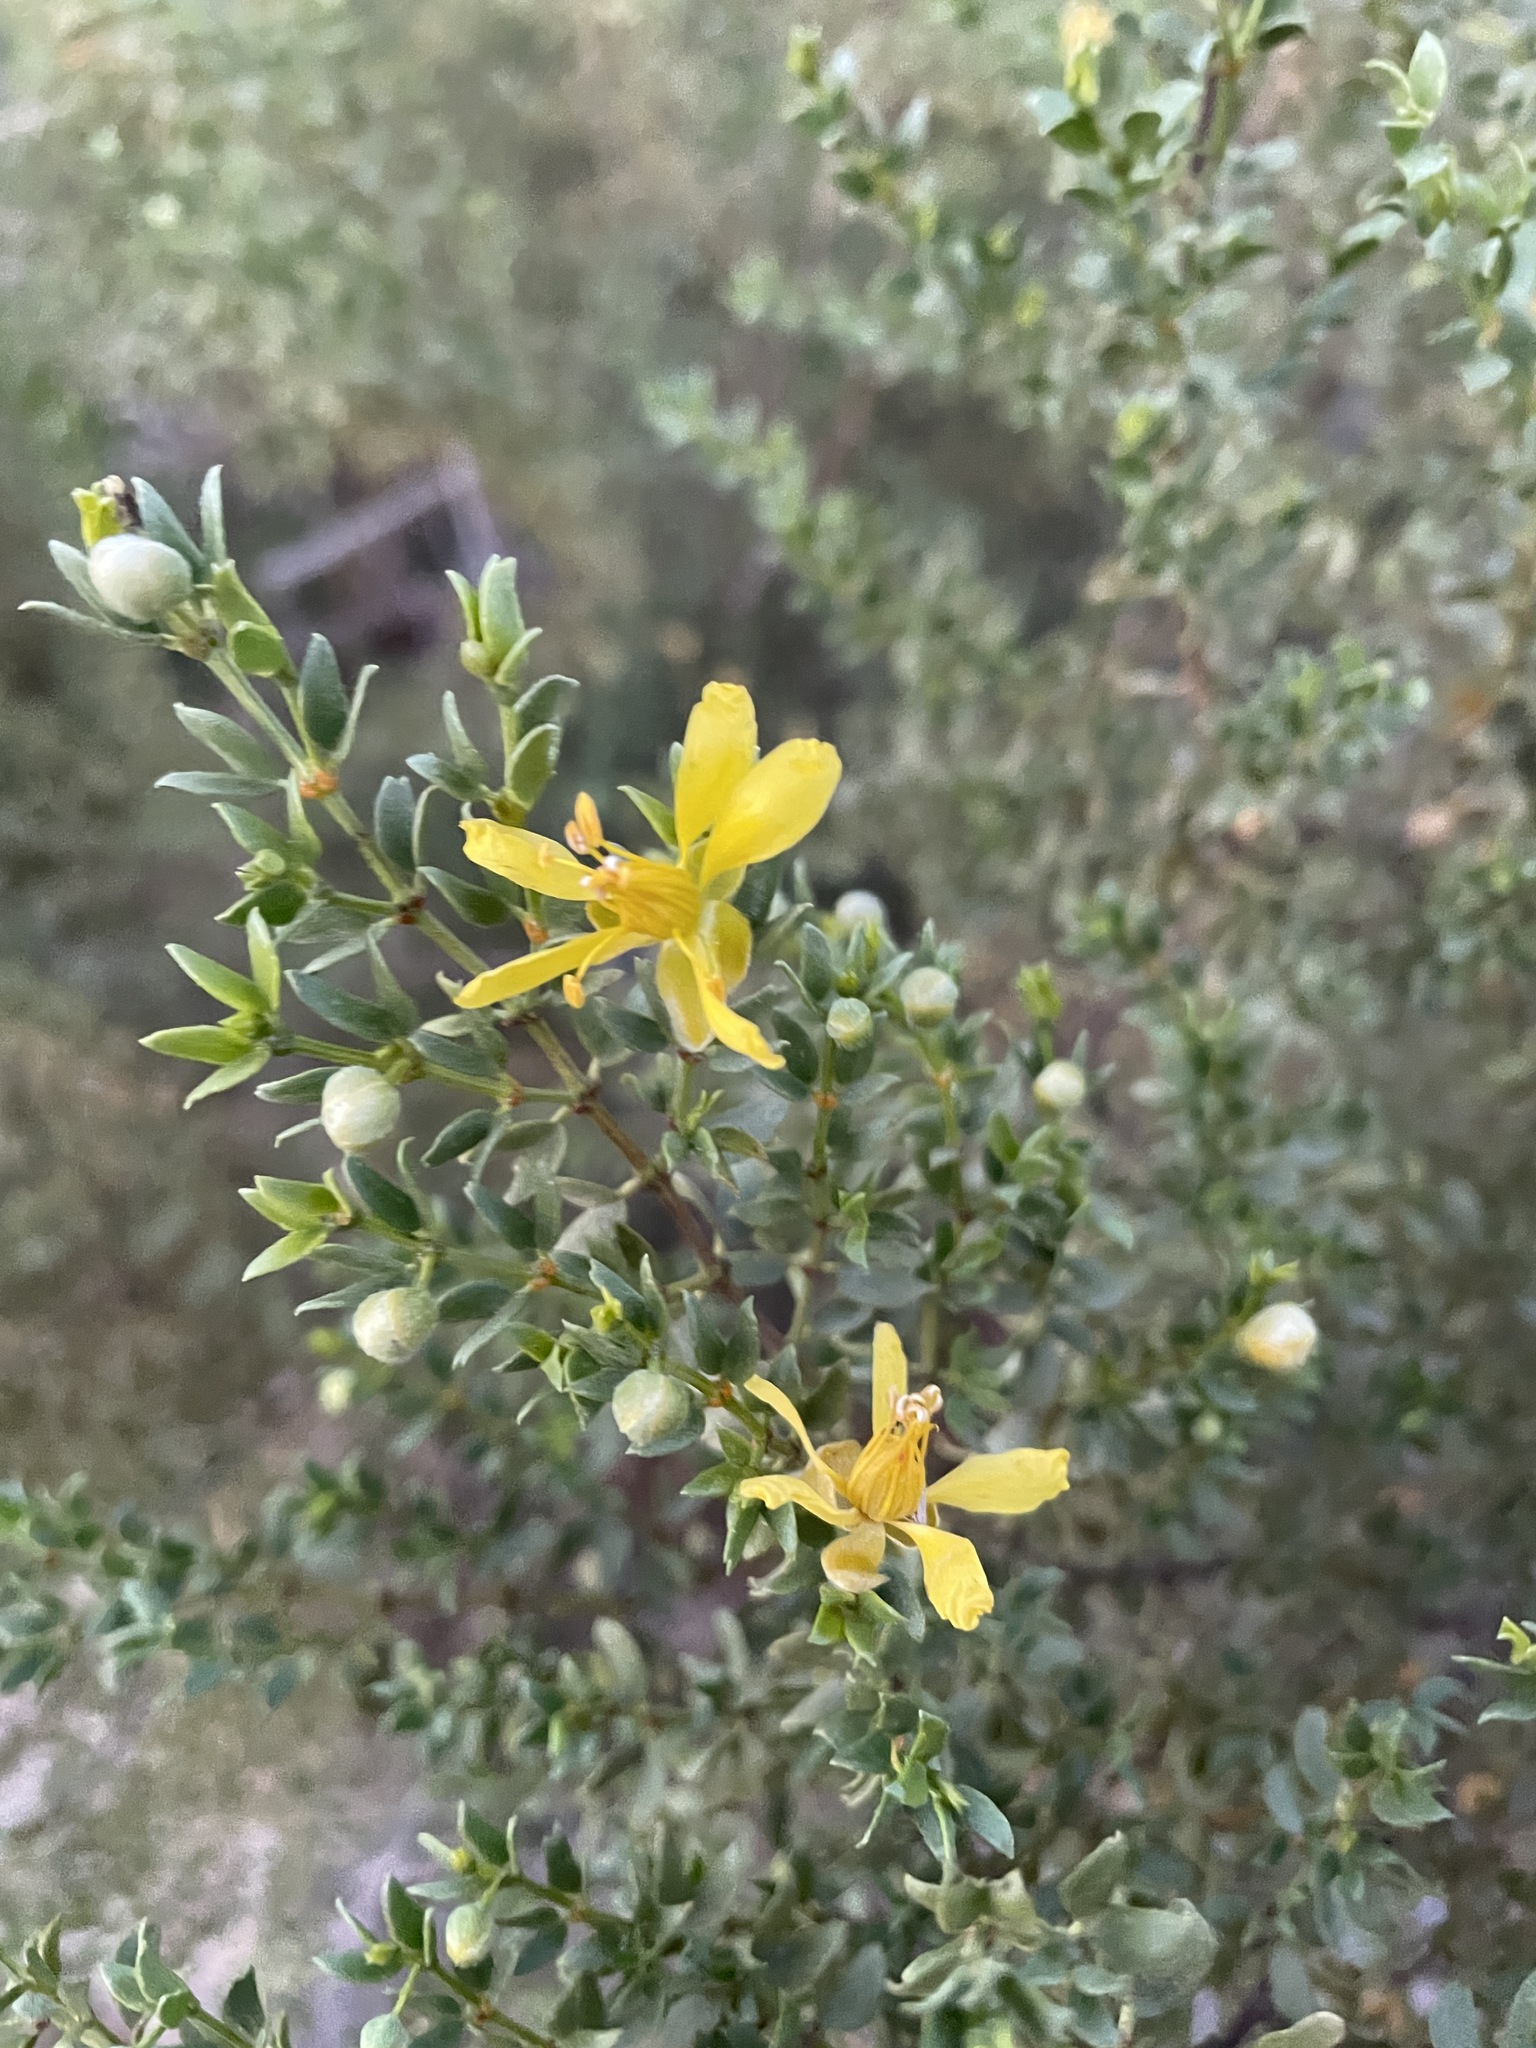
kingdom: Plantae
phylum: Tracheophyta
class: Magnoliopsida
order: Zygophyllales
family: Zygophyllaceae
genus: Larrea
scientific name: Larrea tridentata
